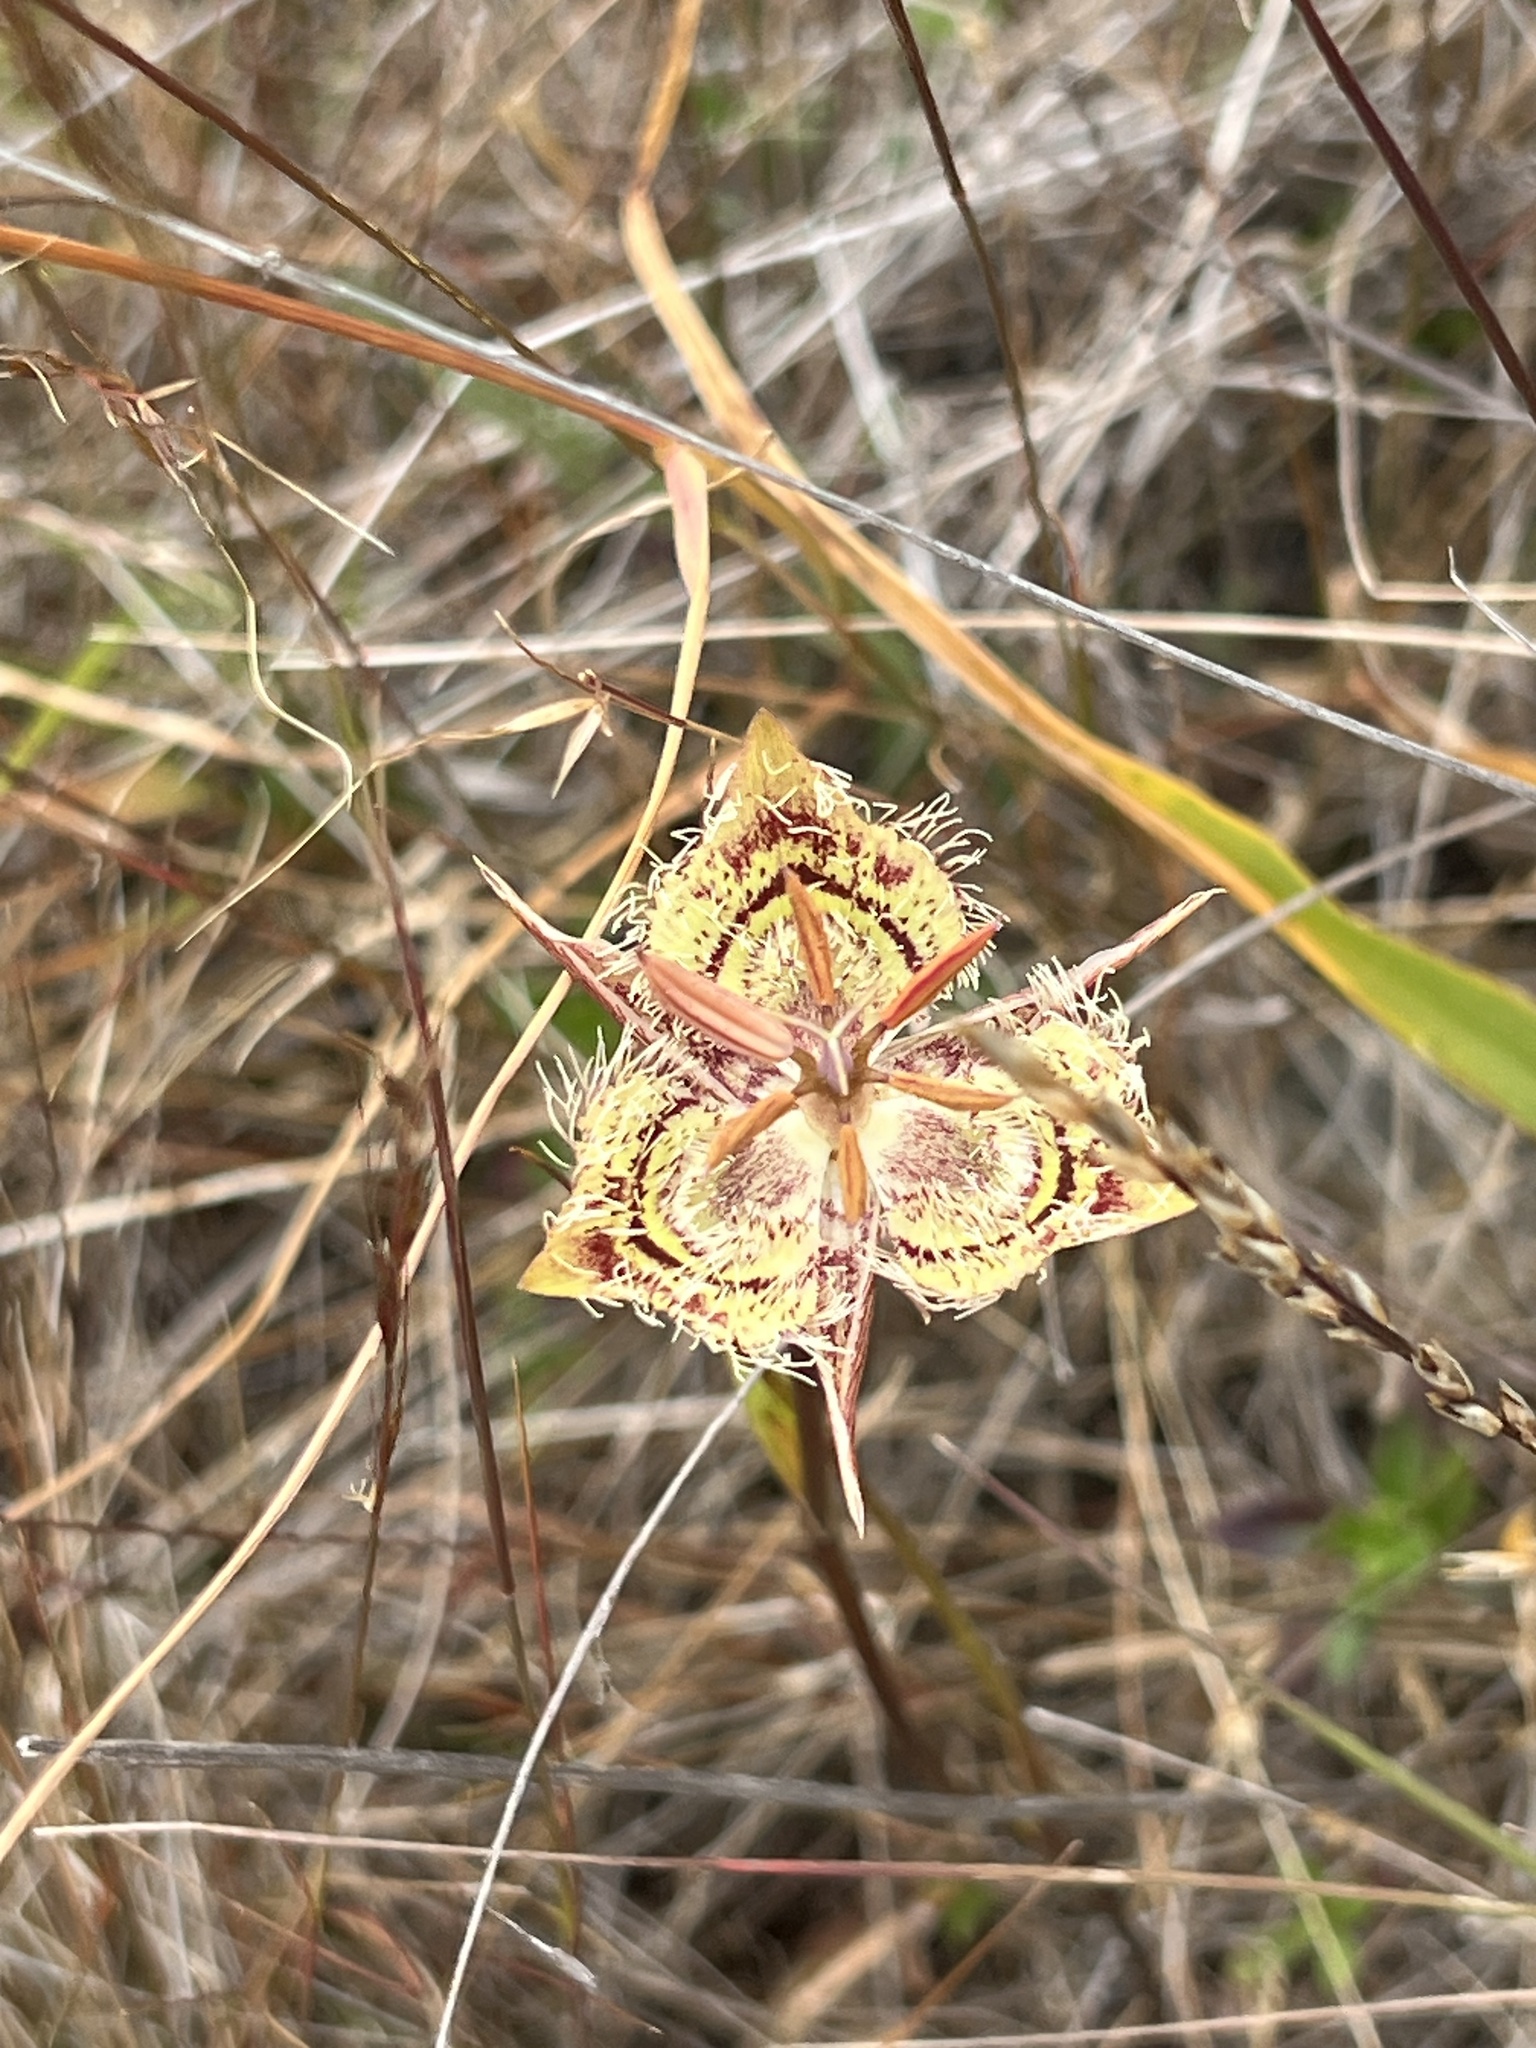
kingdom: Plantae
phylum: Tracheophyta
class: Liliopsida
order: Liliales
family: Liliaceae
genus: Calochortus
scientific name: Calochortus tiburonensis
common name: Tiburon mariposa-lily
